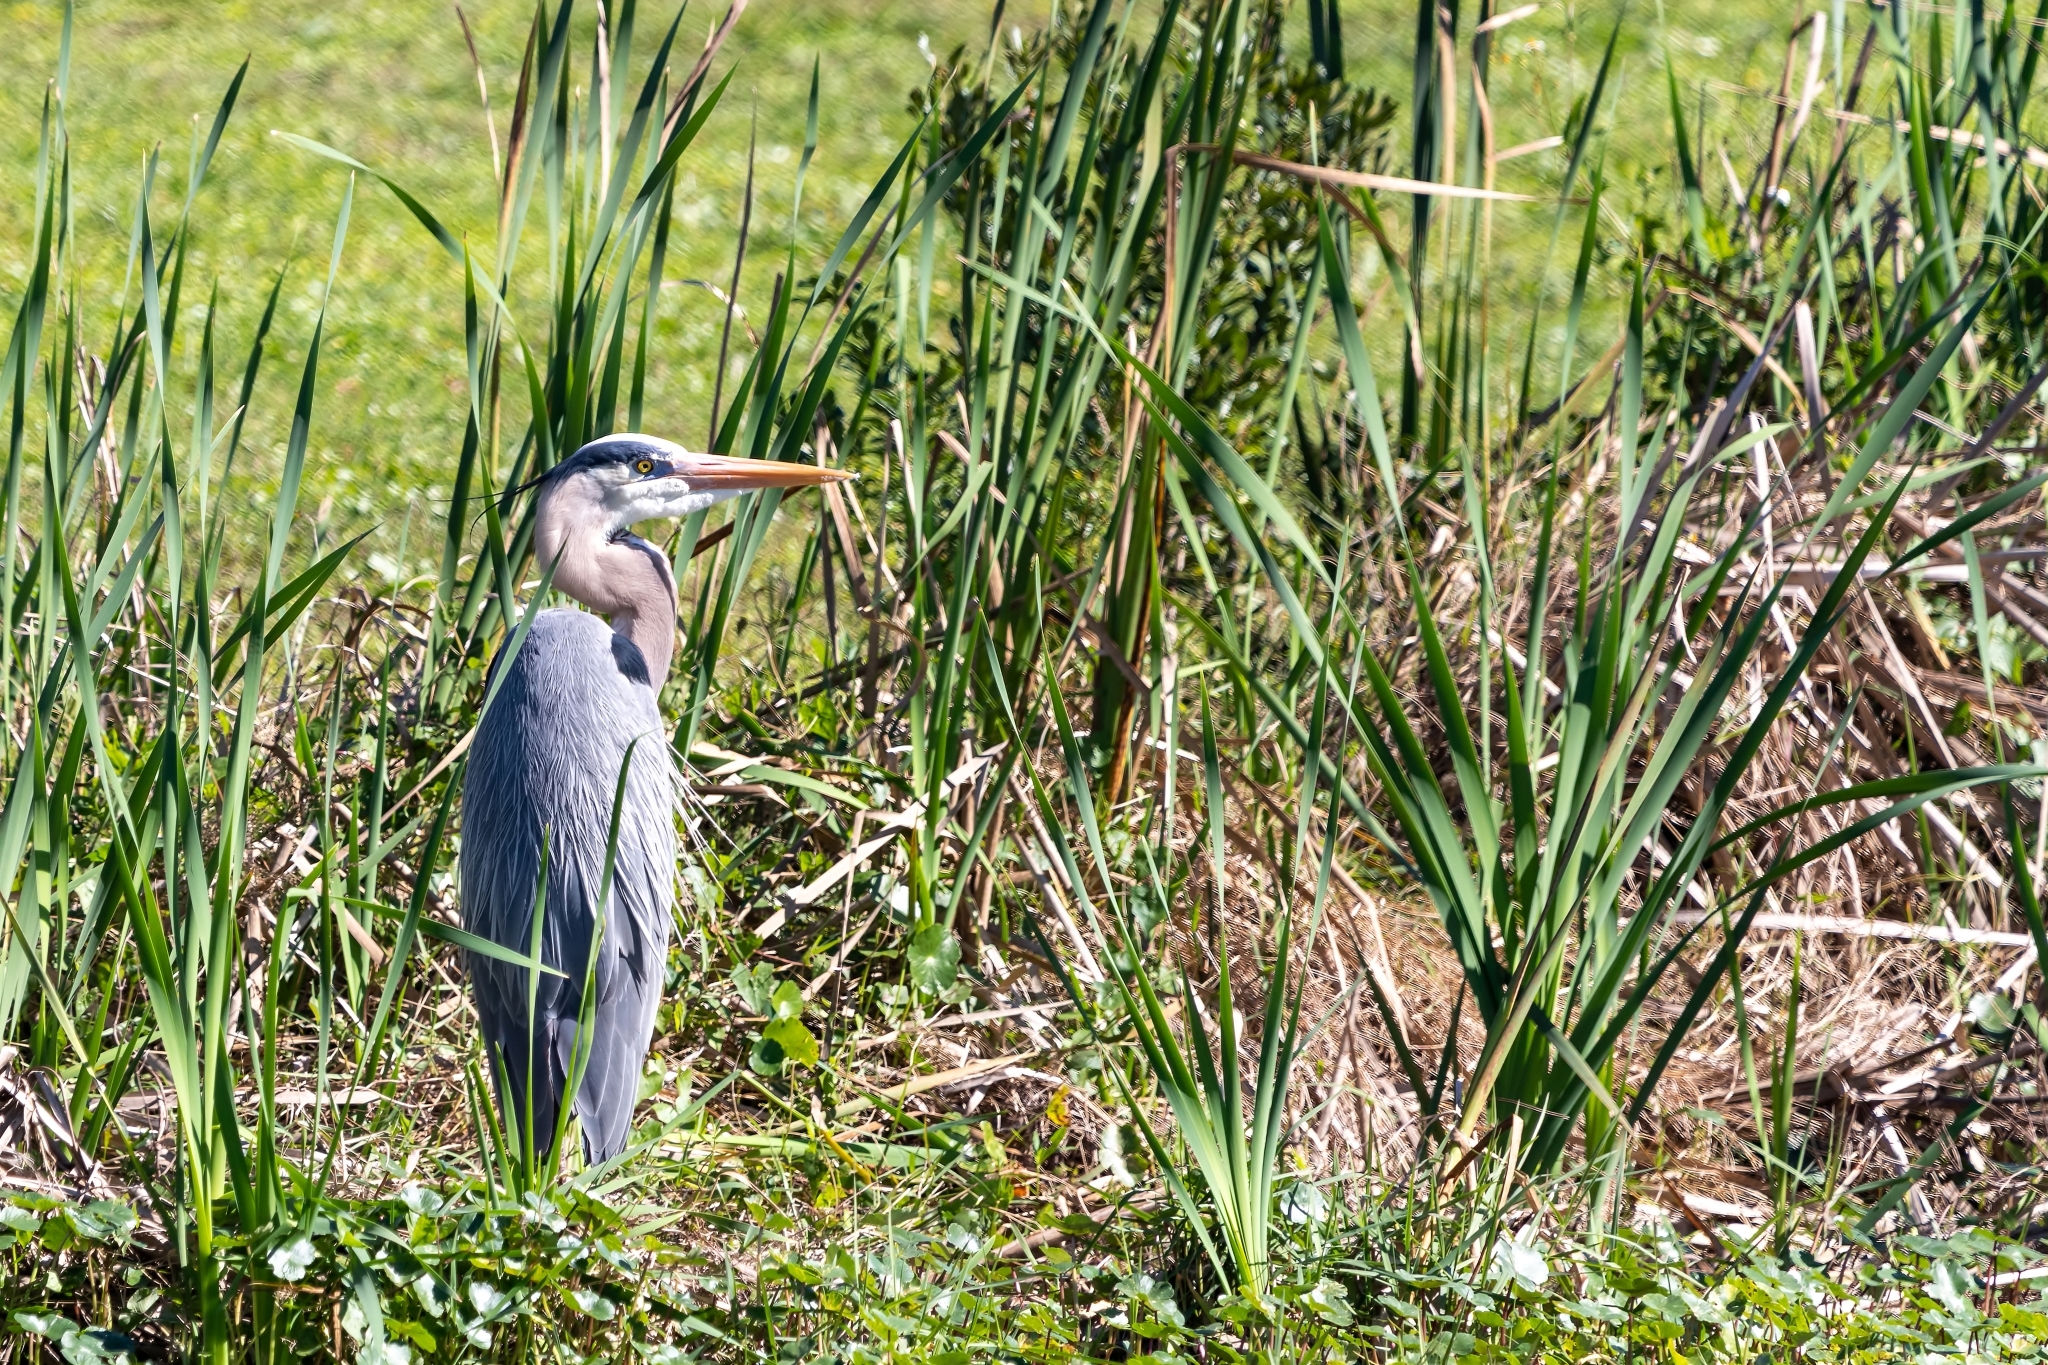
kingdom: Animalia
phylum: Chordata
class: Aves
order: Pelecaniformes
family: Ardeidae
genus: Ardea
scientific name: Ardea herodias
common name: Great blue heron
